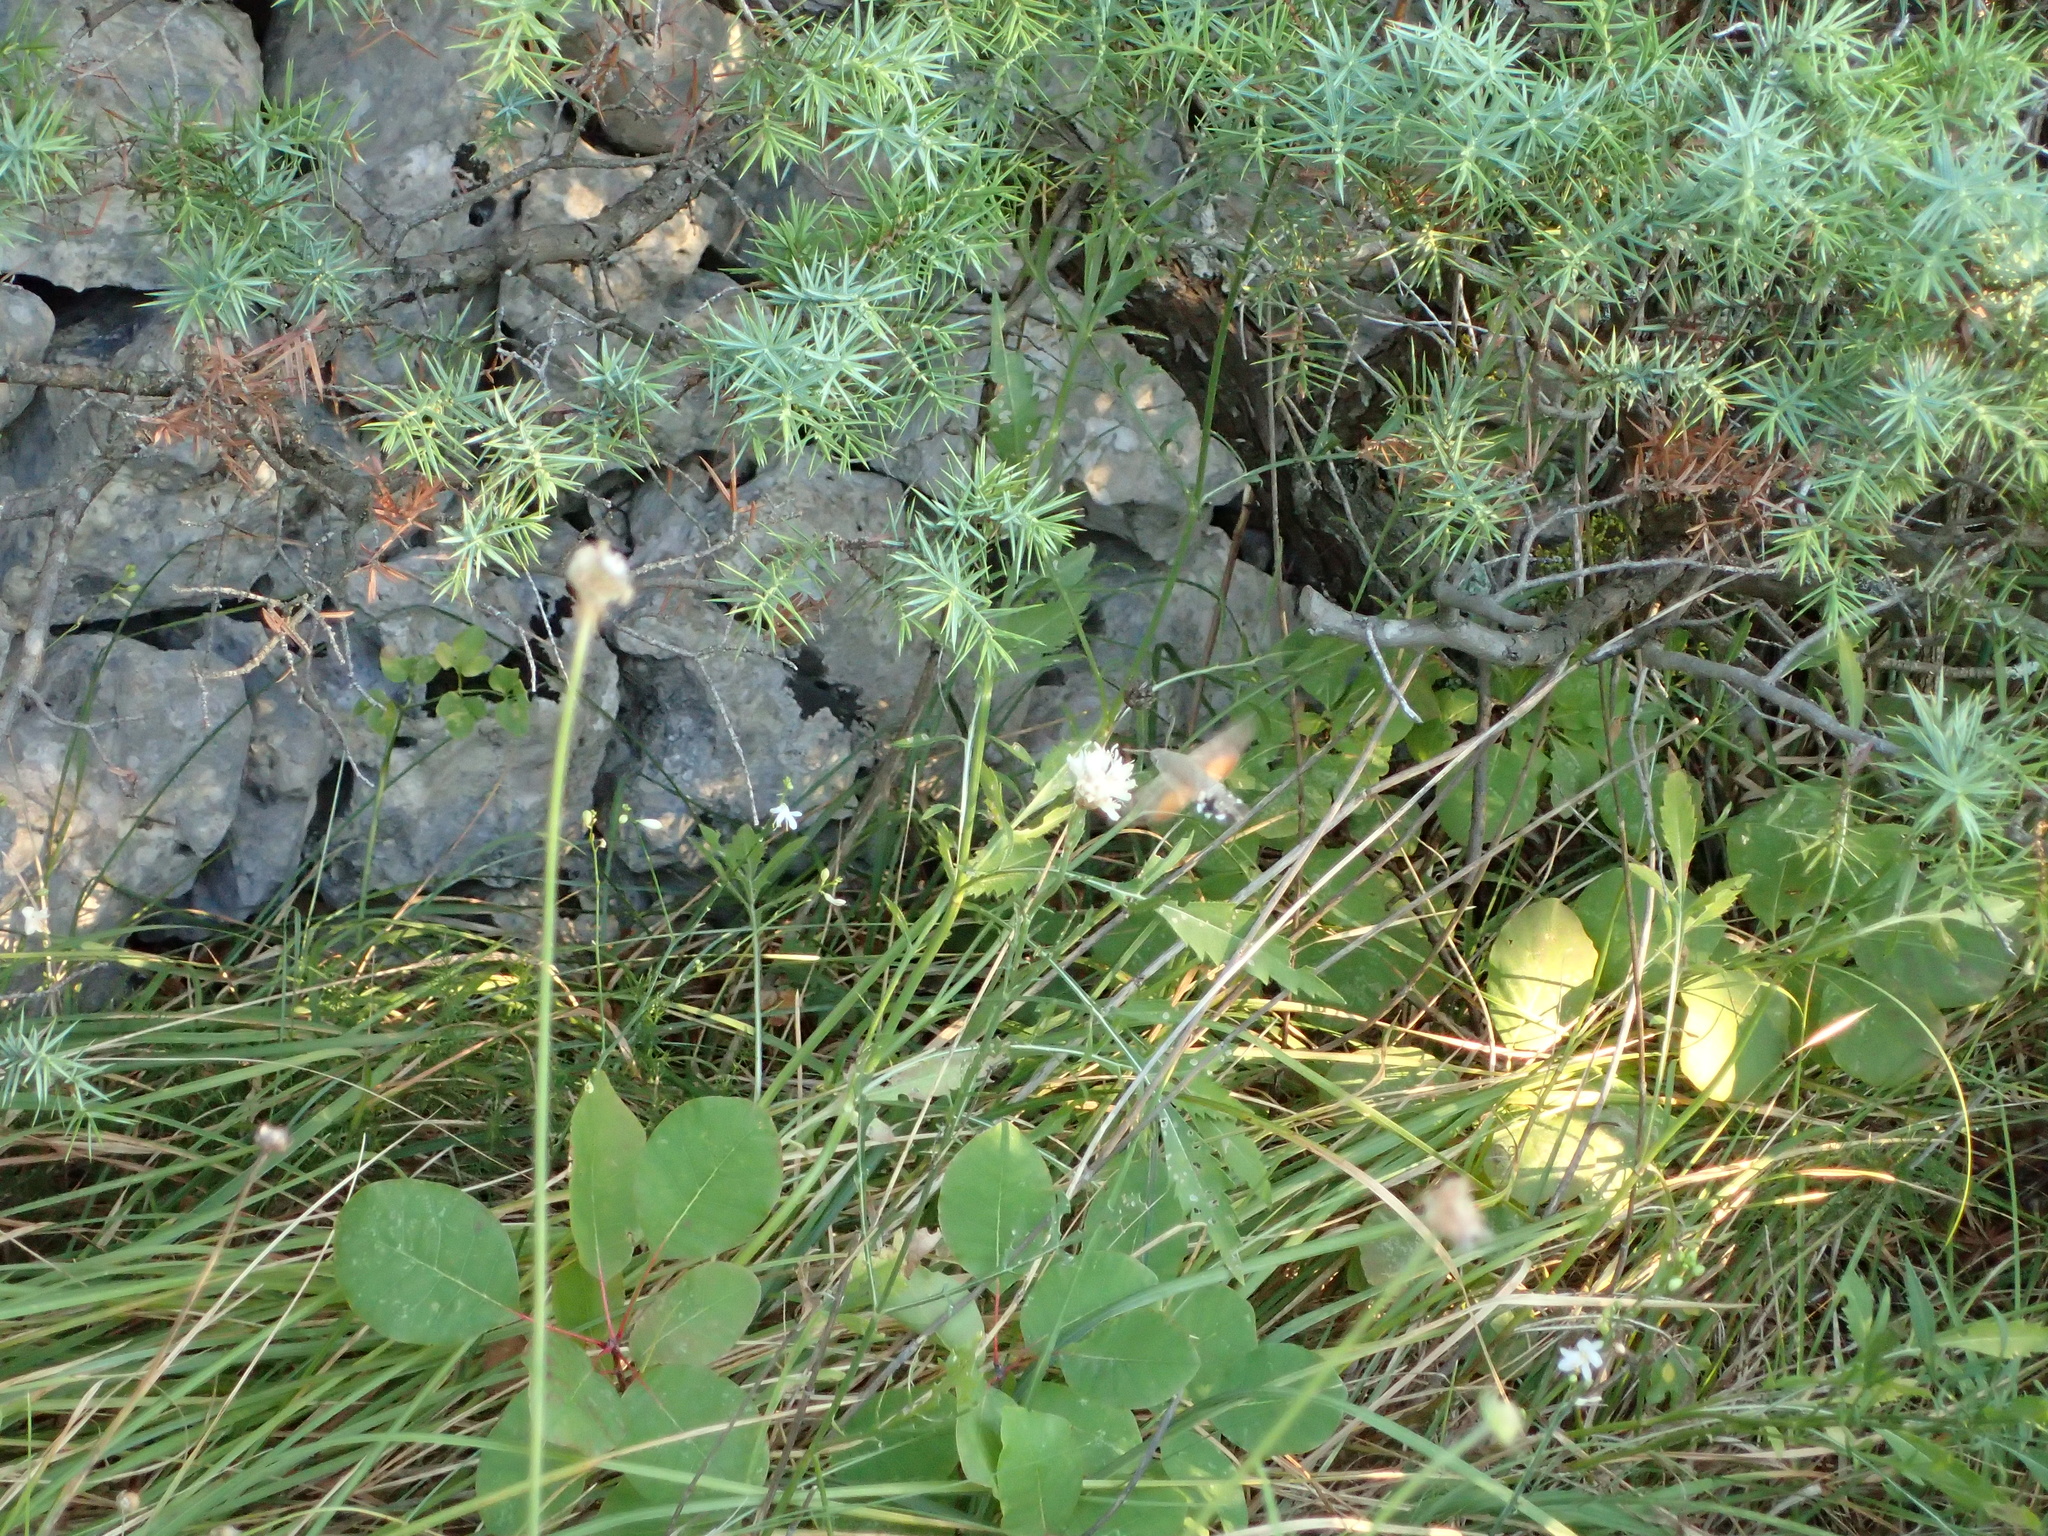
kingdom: Animalia
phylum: Arthropoda
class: Insecta
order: Lepidoptera
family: Sphingidae
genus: Macroglossum
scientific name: Macroglossum stellatarum
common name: Humming-bird hawk-moth
